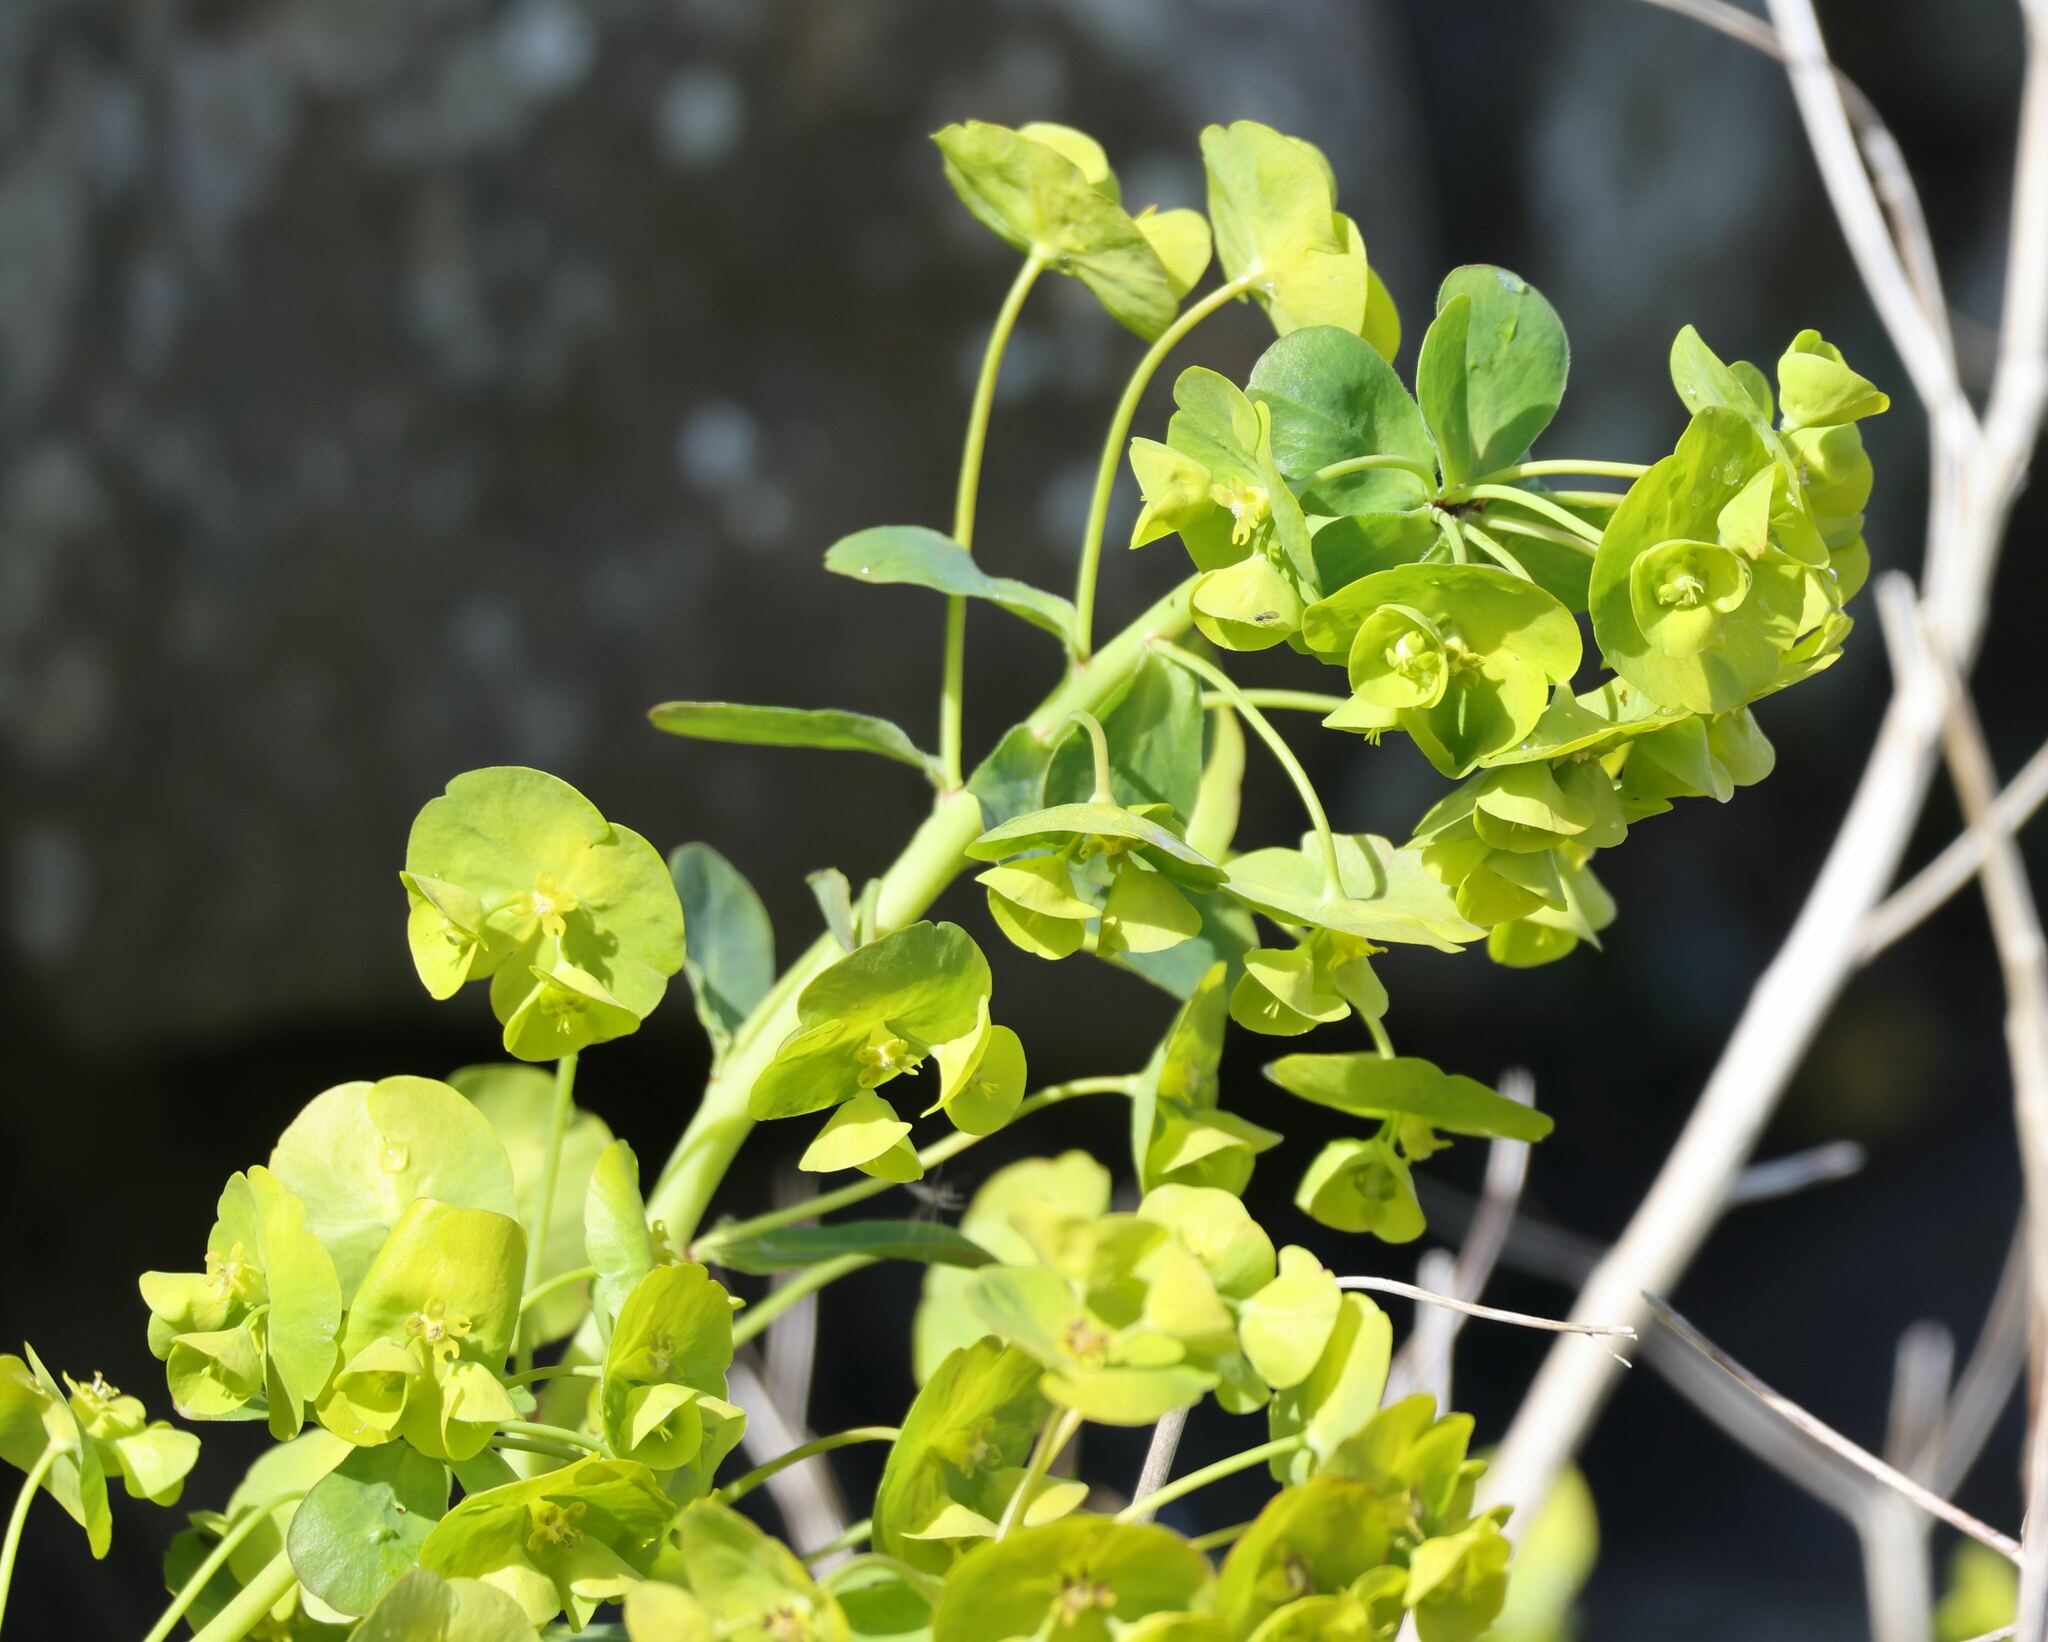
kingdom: Plantae
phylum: Tracheophyta
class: Magnoliopsida
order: Malpighiales
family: Euphorbiaceae
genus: Euphorbia
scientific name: Euphorbia amygdaloides
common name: Wood spurge
